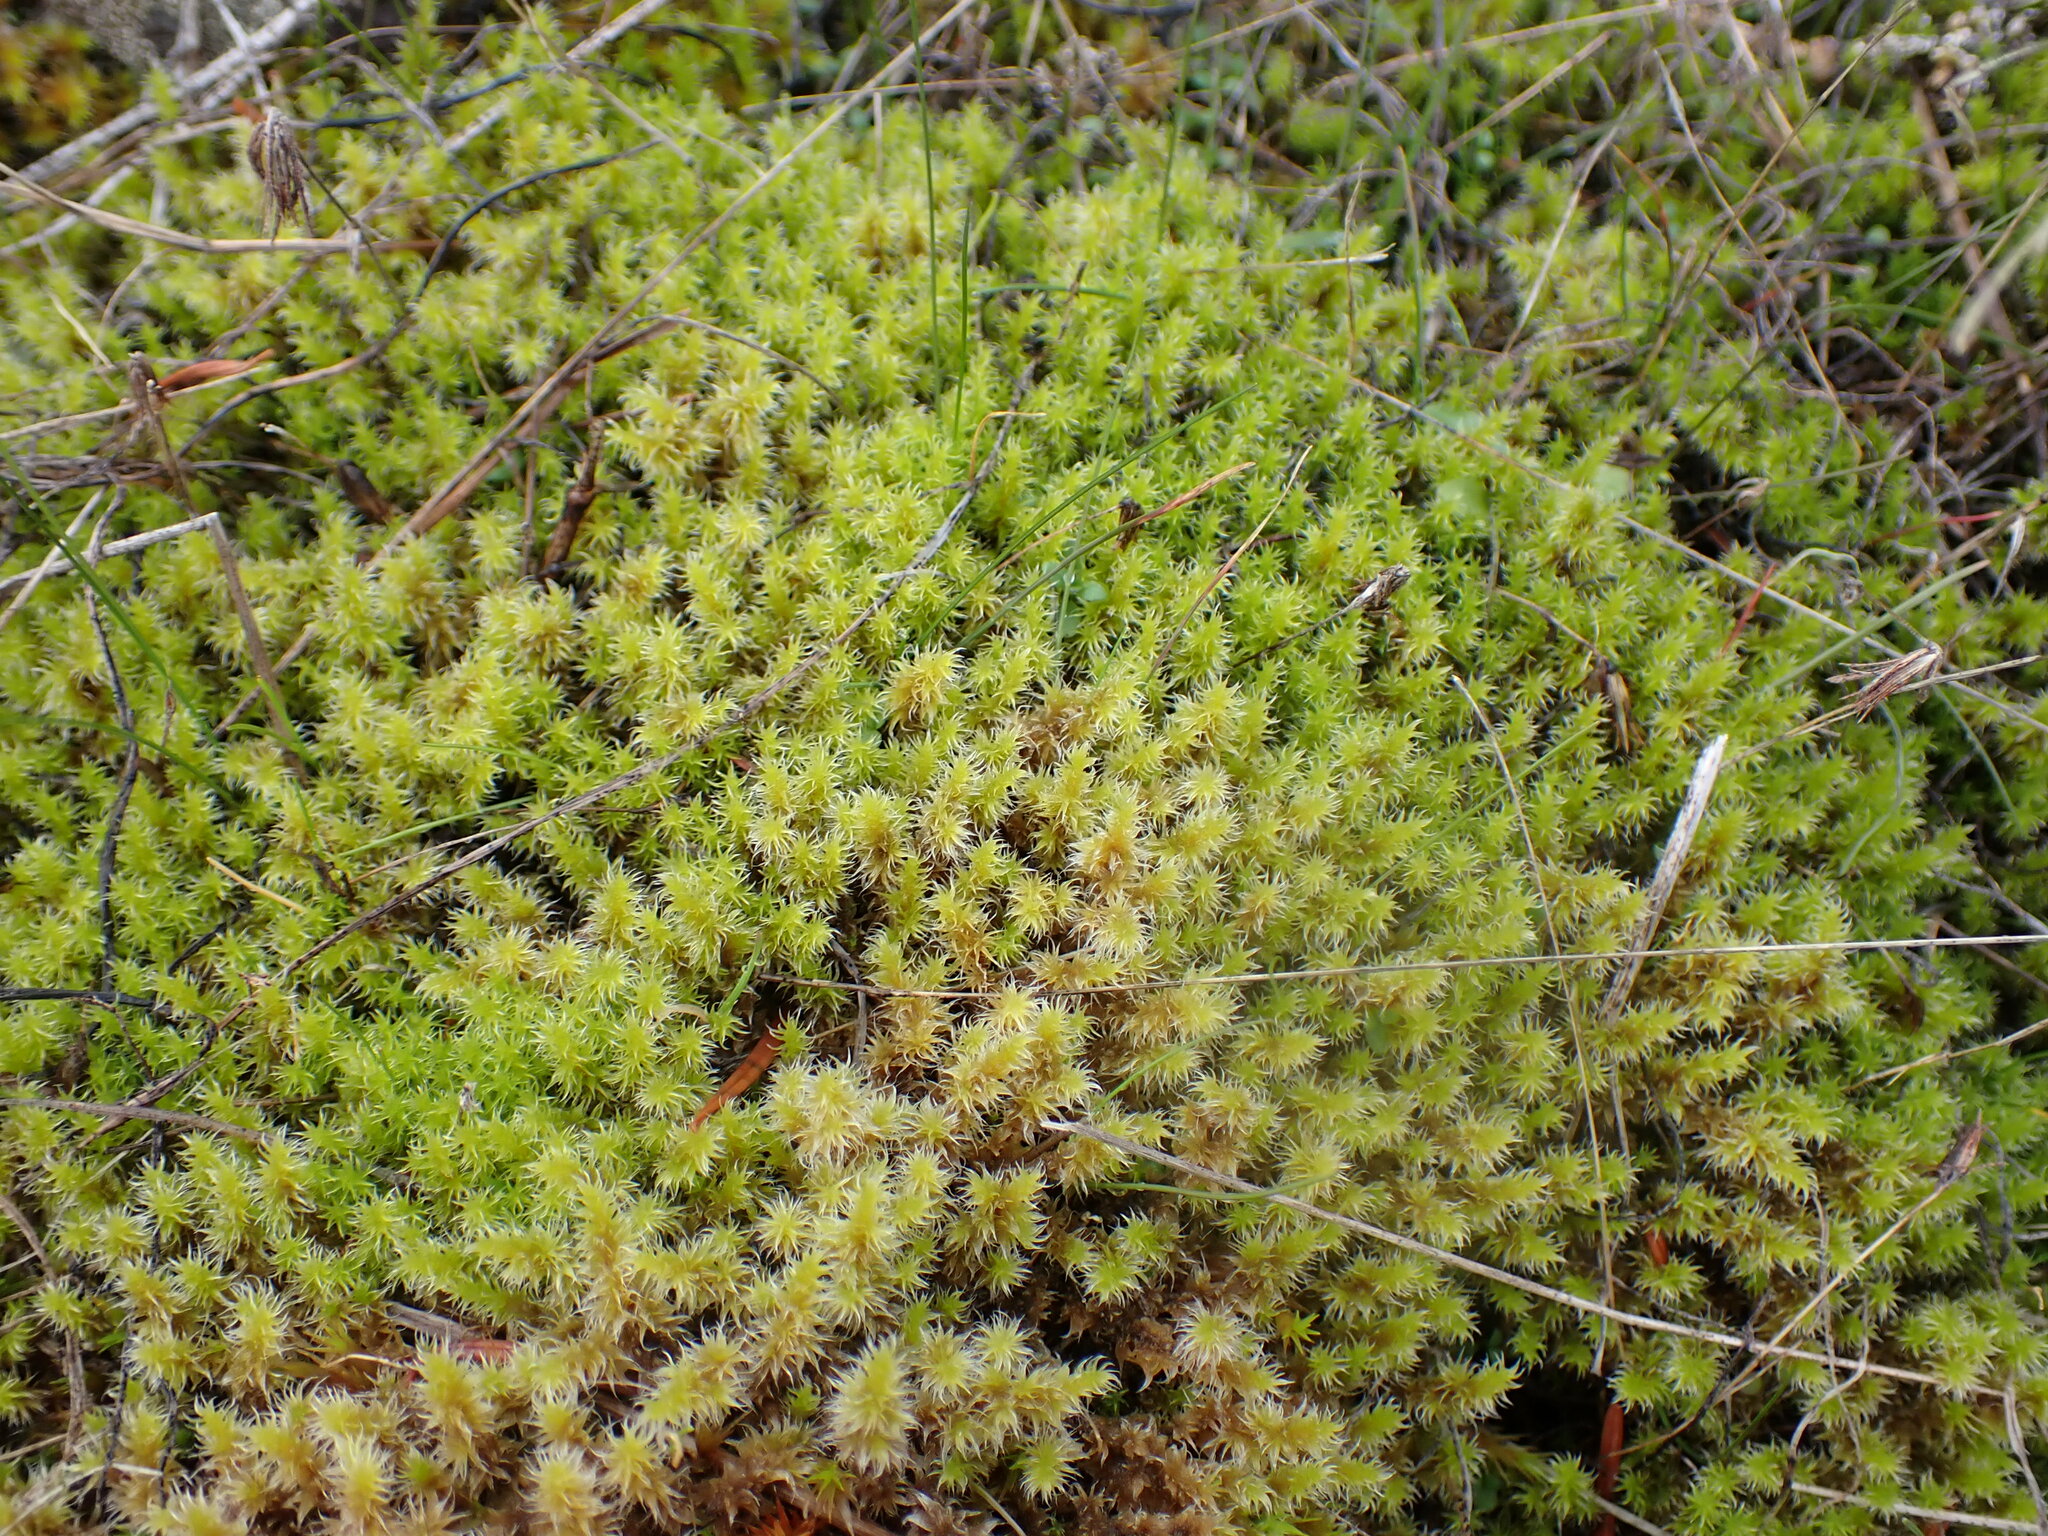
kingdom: Plantae
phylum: Bryophyta
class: Bryopsida
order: Grimmiales
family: Grimmiaceae
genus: Niphotrichum
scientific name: Niphotrichum elongatum
